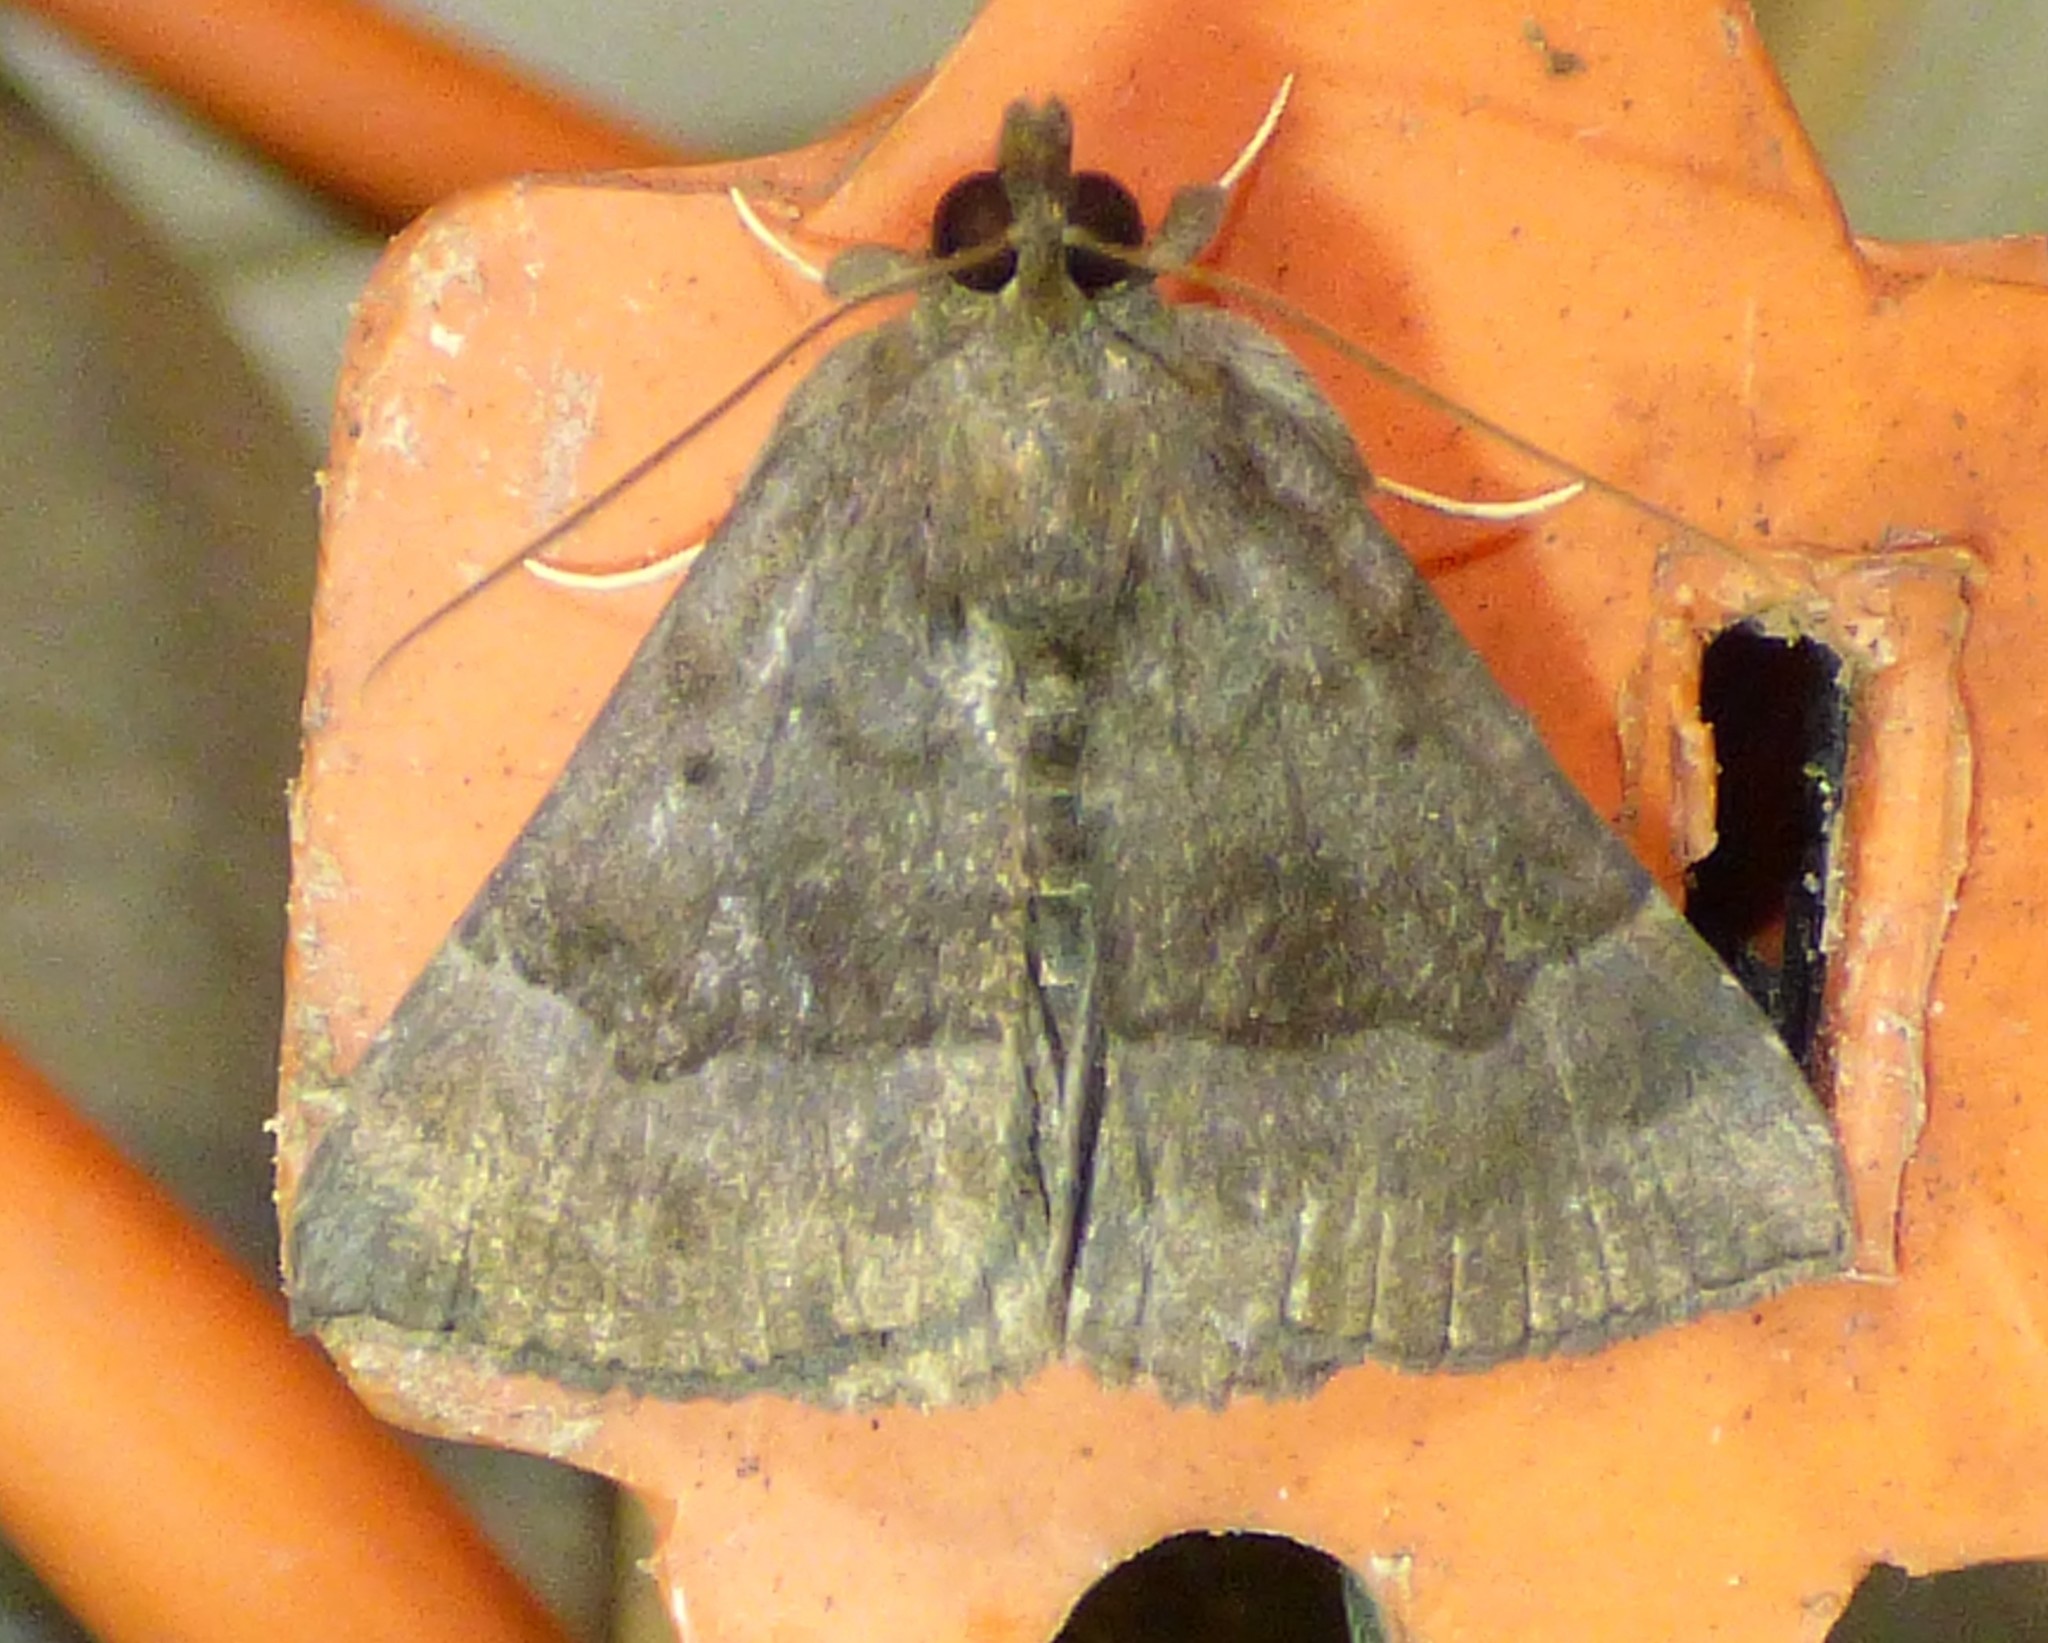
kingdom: Animalia
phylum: Arthropoda
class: Insecta
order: Lepidoptera
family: Erebidae
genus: Hypena
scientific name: Hypena madefactalis
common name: Gray-edged snout
